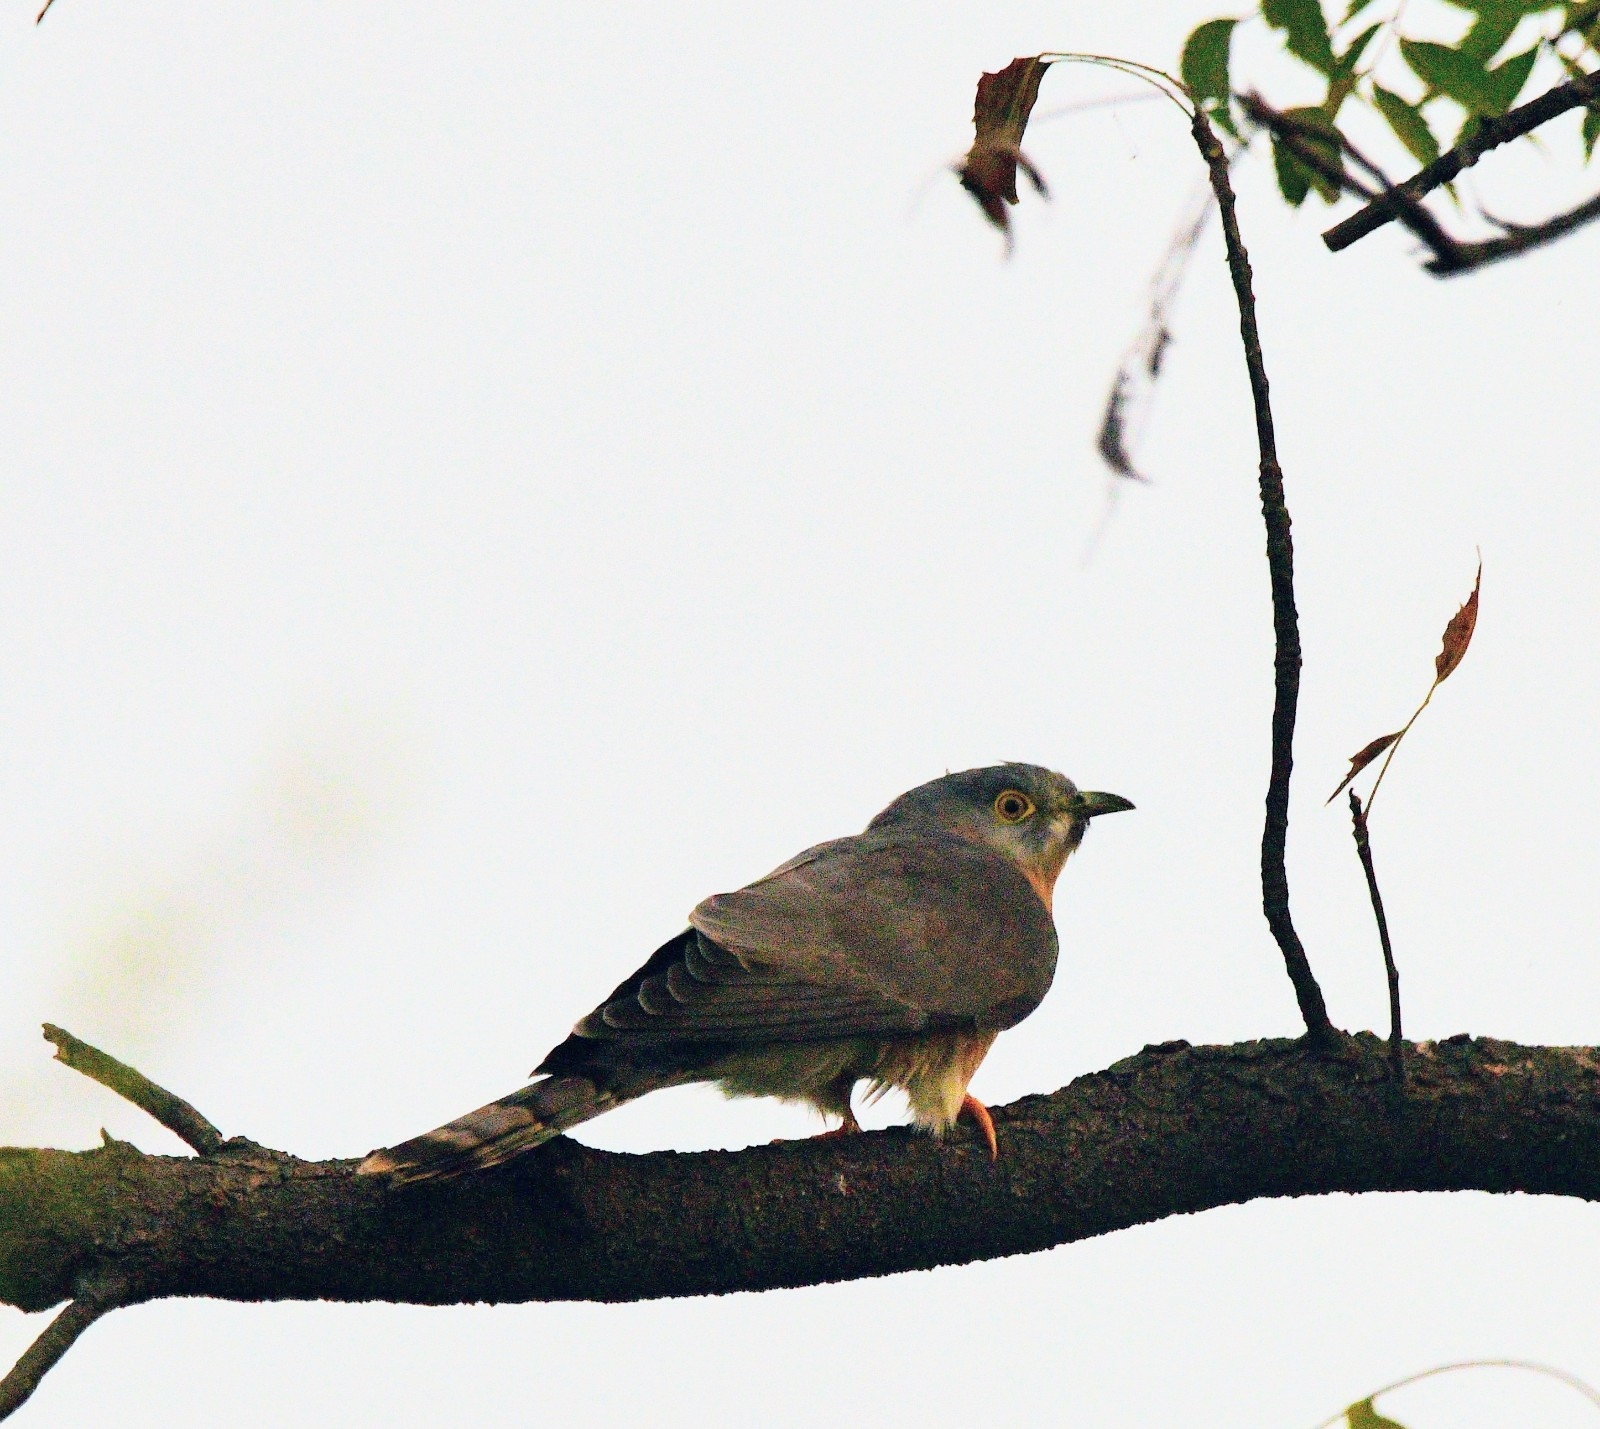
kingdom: Animalia
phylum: Chordata
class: Aves
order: Cuculiformes
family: Cuculidae
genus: Cuculus
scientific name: Cuculus varius
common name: Common hawk cuckoo
